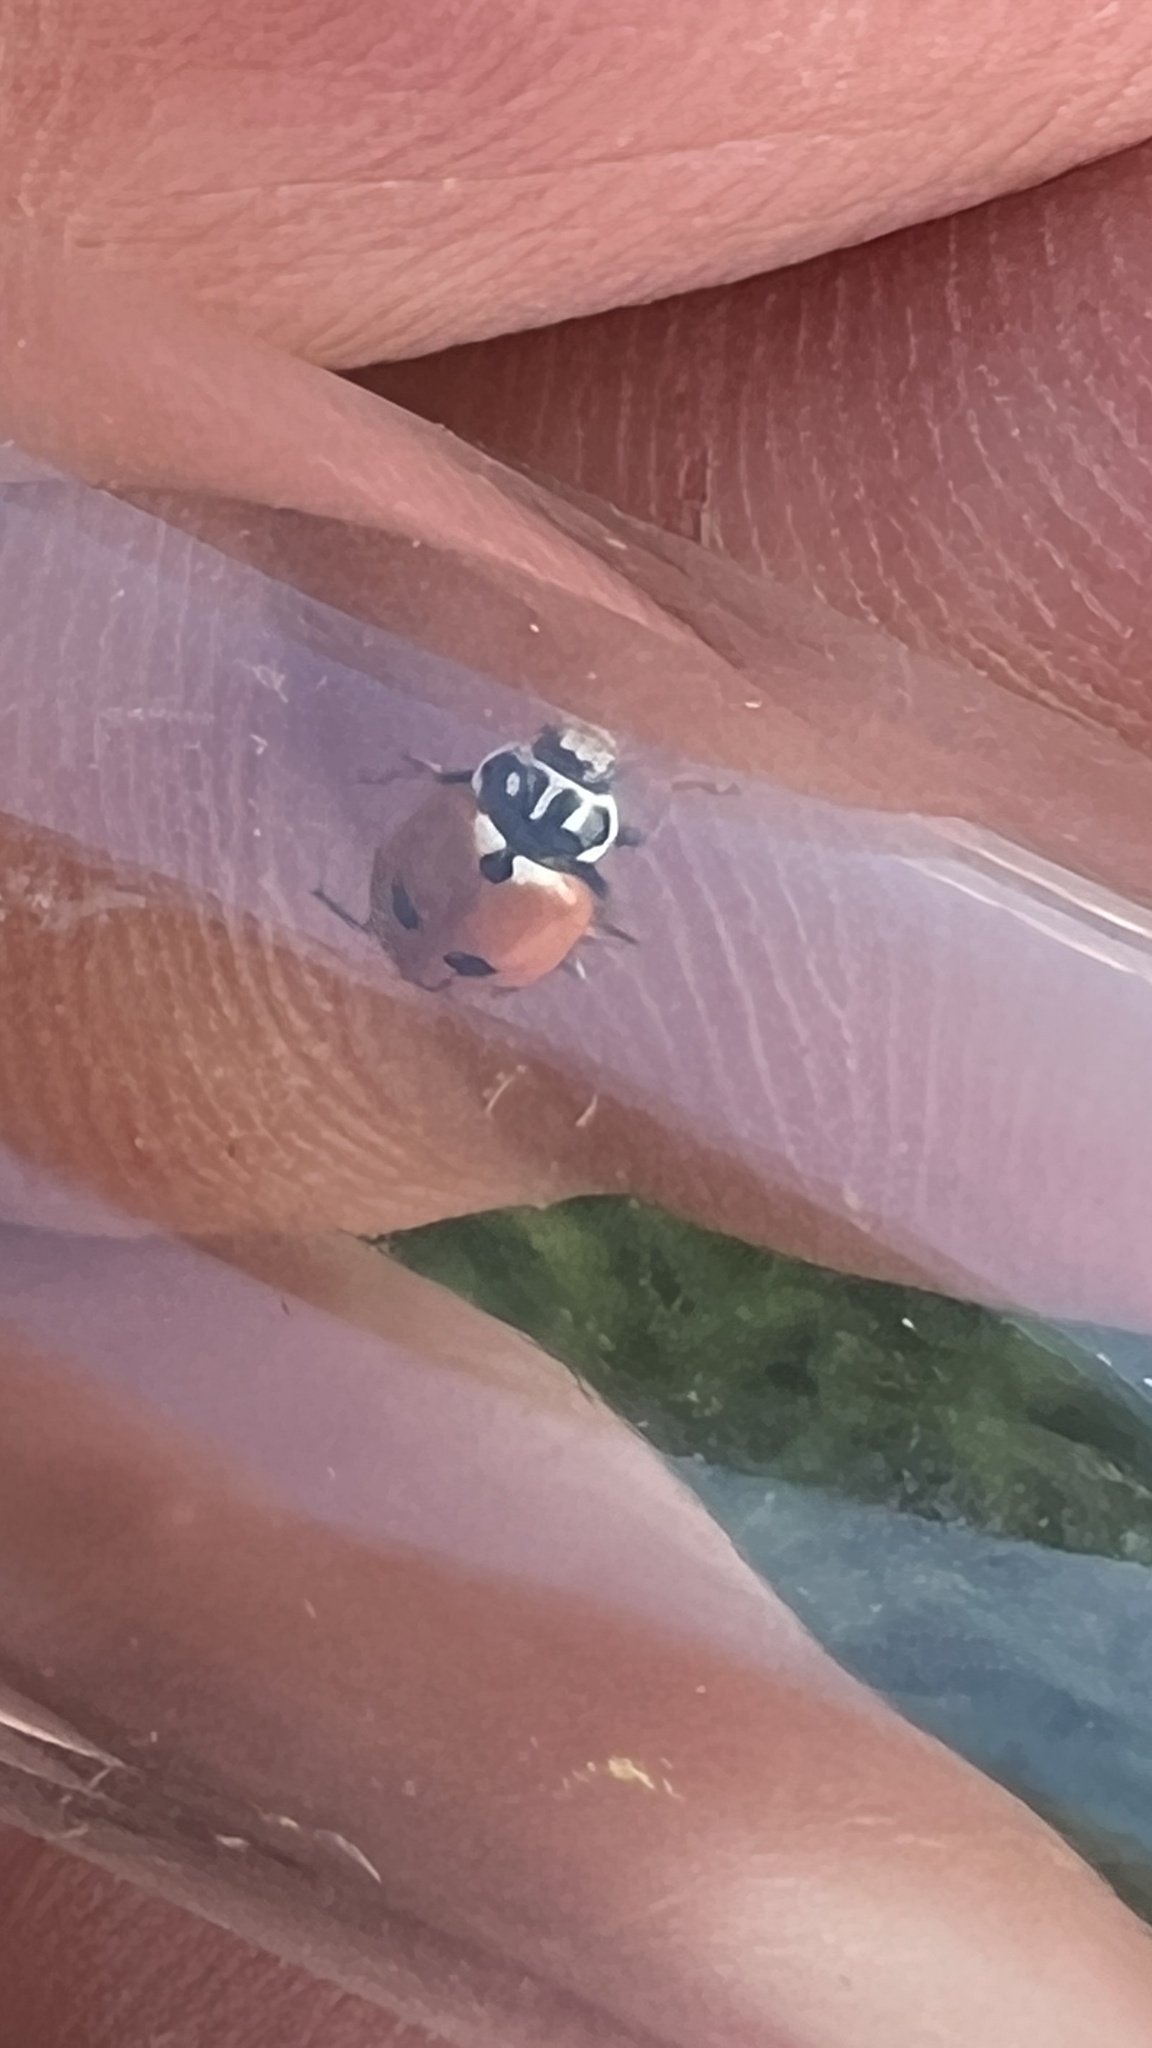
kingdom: Animalia
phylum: Arthropoda
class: Insecta
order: Coleoptera
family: Coccinellidae
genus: Hippodamia
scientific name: Hippodamia variegata
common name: Ladybird beetle
